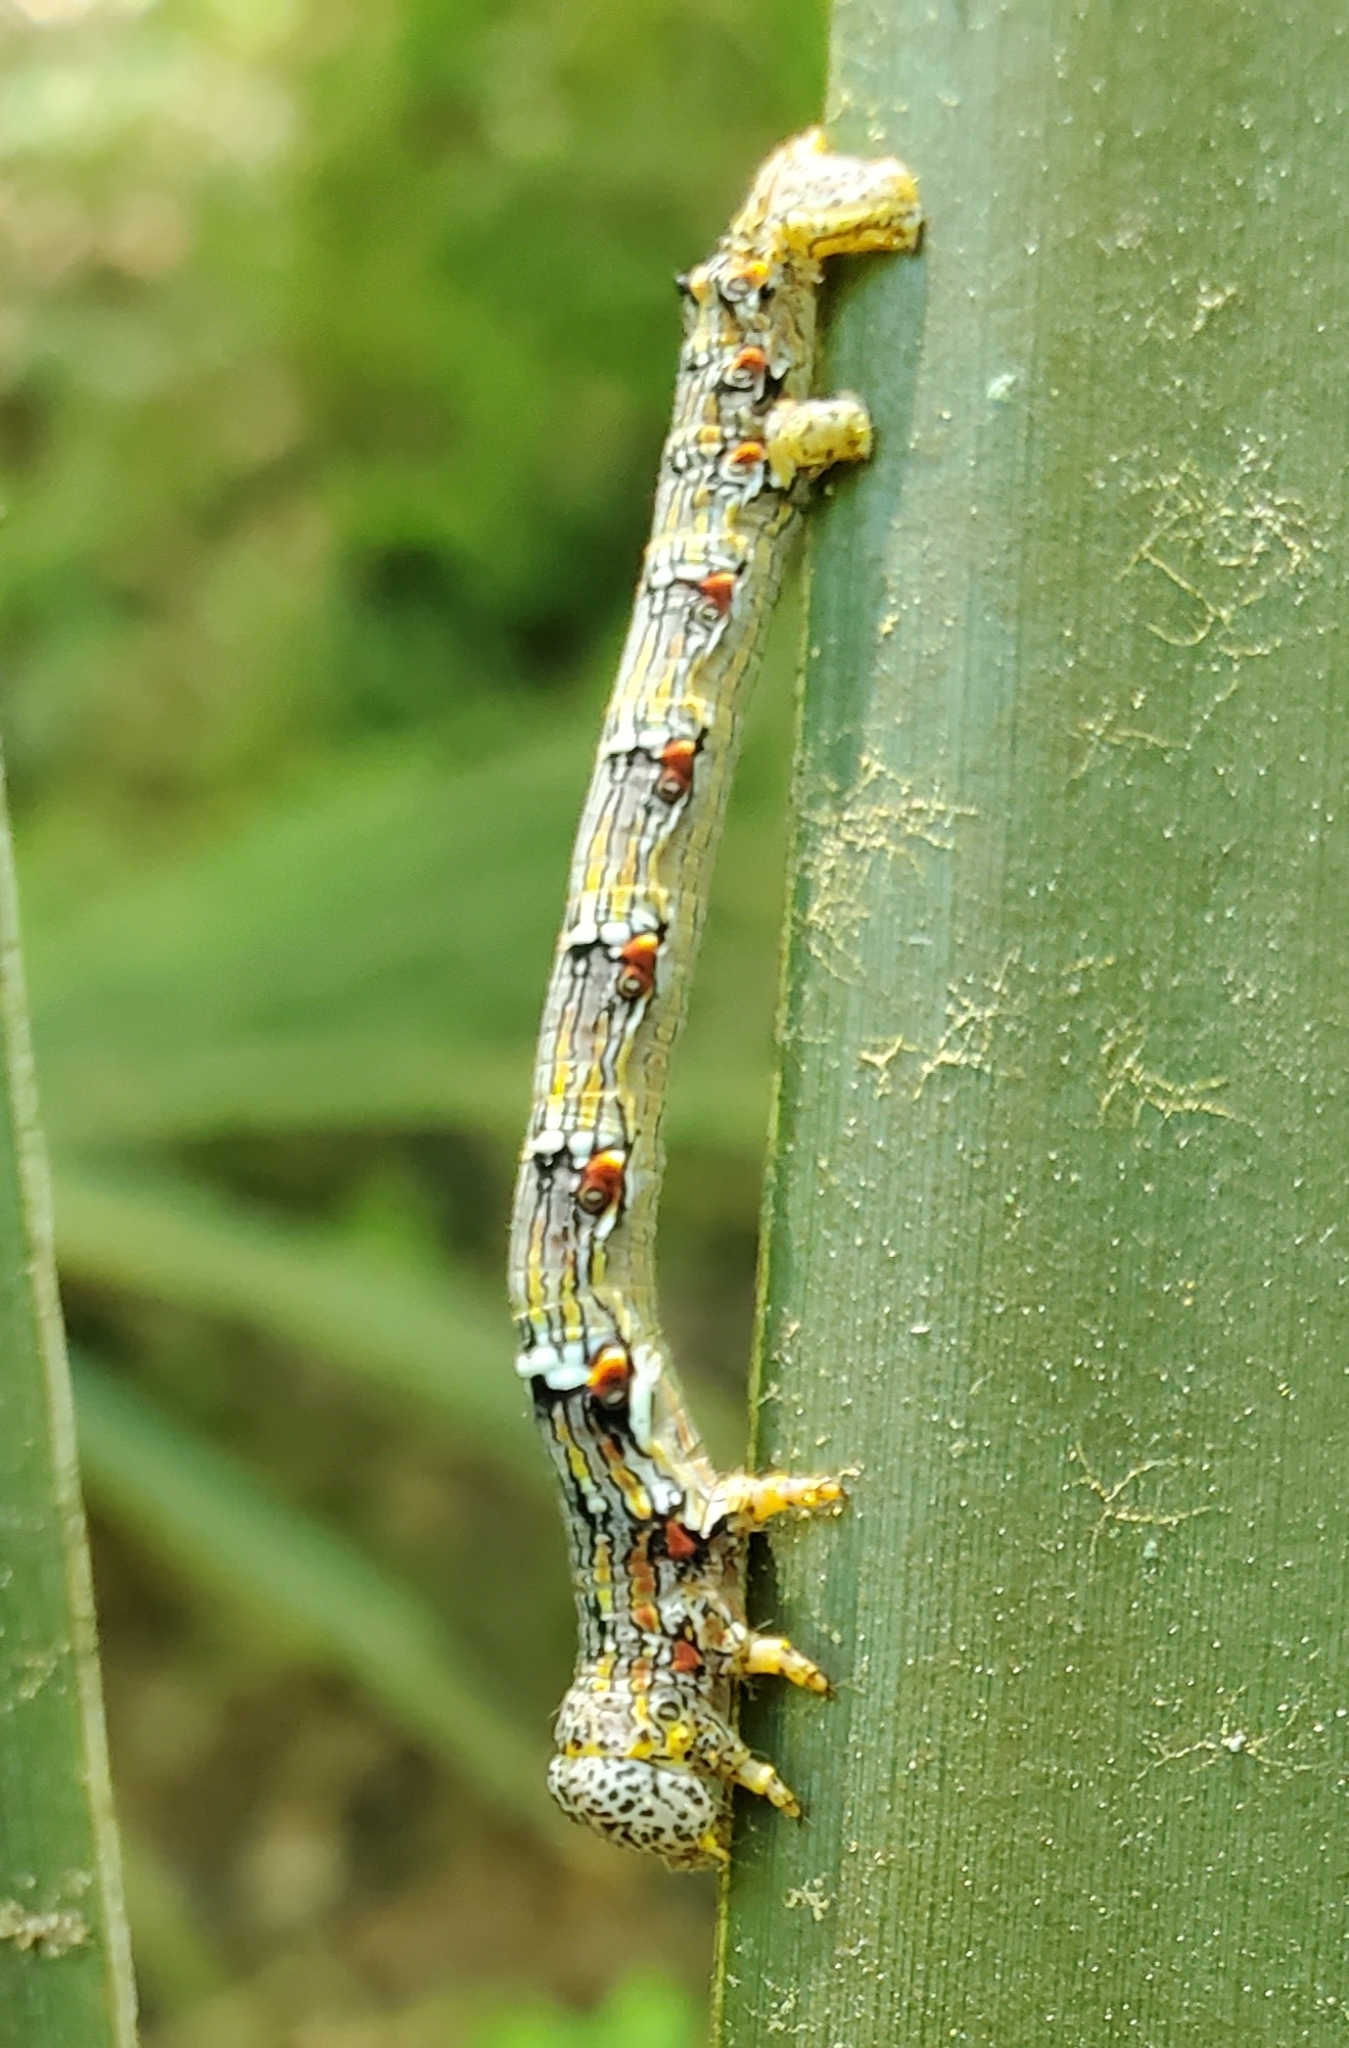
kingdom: Animalia
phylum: Arthropoda
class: Insecta
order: Lepidoptera
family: Geometridae
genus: Lycia
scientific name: Lycia ypsilon
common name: Wooly gray
